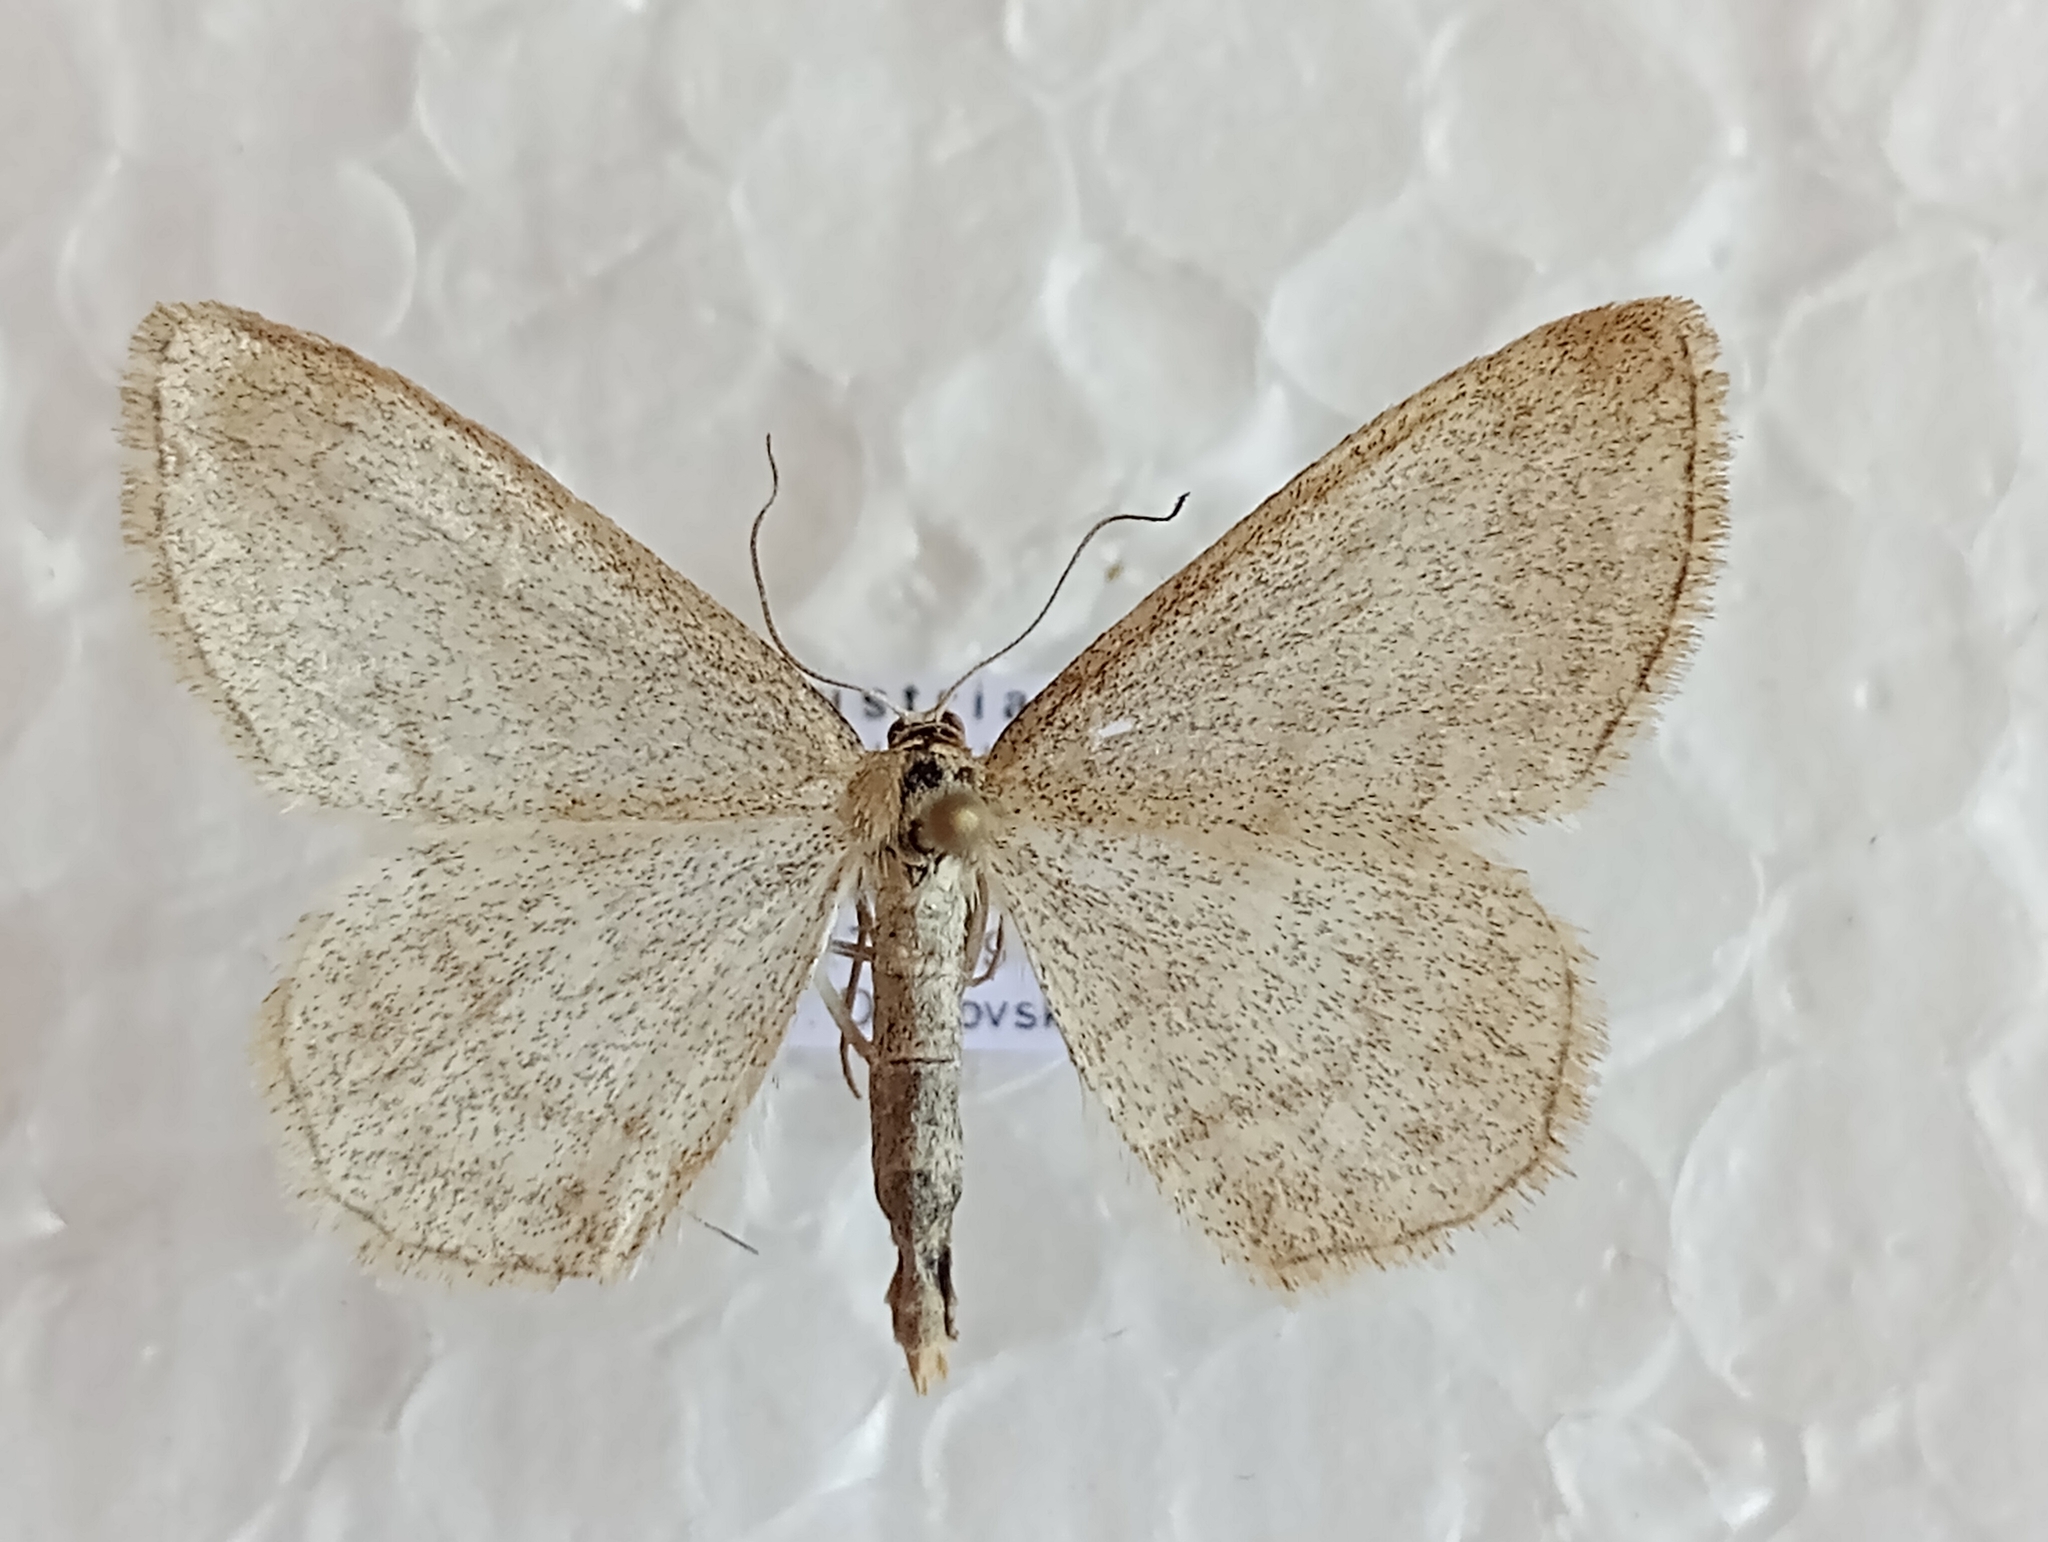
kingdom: Animalia
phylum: Arthropoda
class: Insecta
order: Lepidoptera
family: Geometridae
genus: Scopula
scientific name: Scopula ternata
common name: Smoky wave
